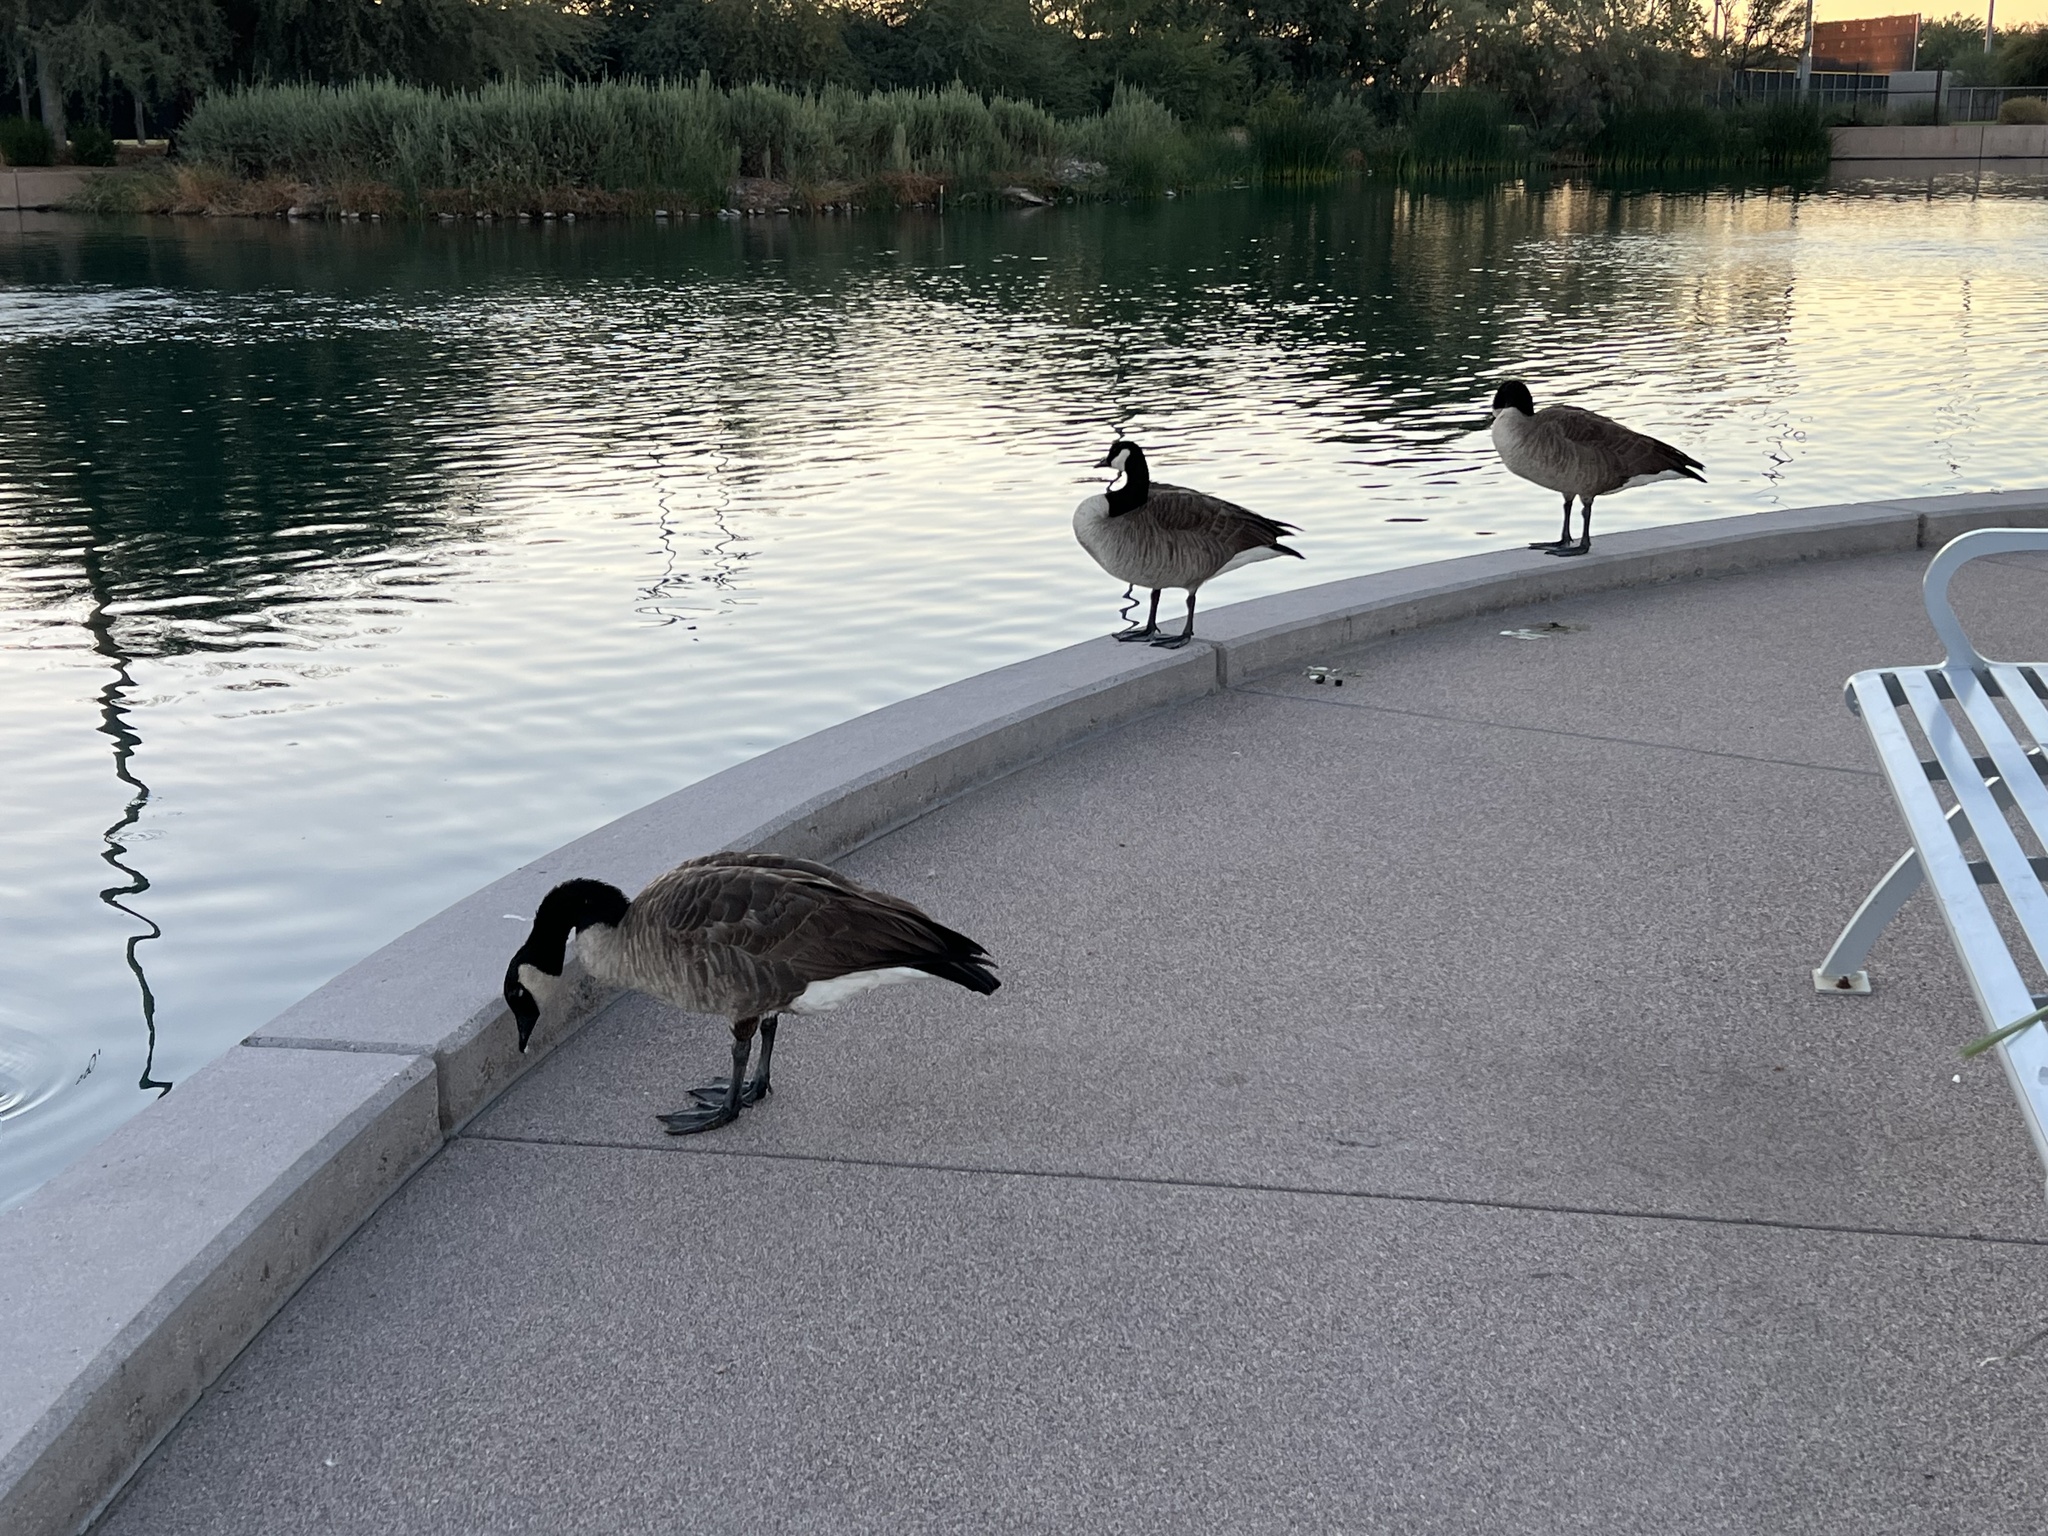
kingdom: Animalia
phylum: Chordata
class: Aves
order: Anseriformes
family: Anatidae
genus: Branta
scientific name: Branta canadensis
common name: Canada goose
